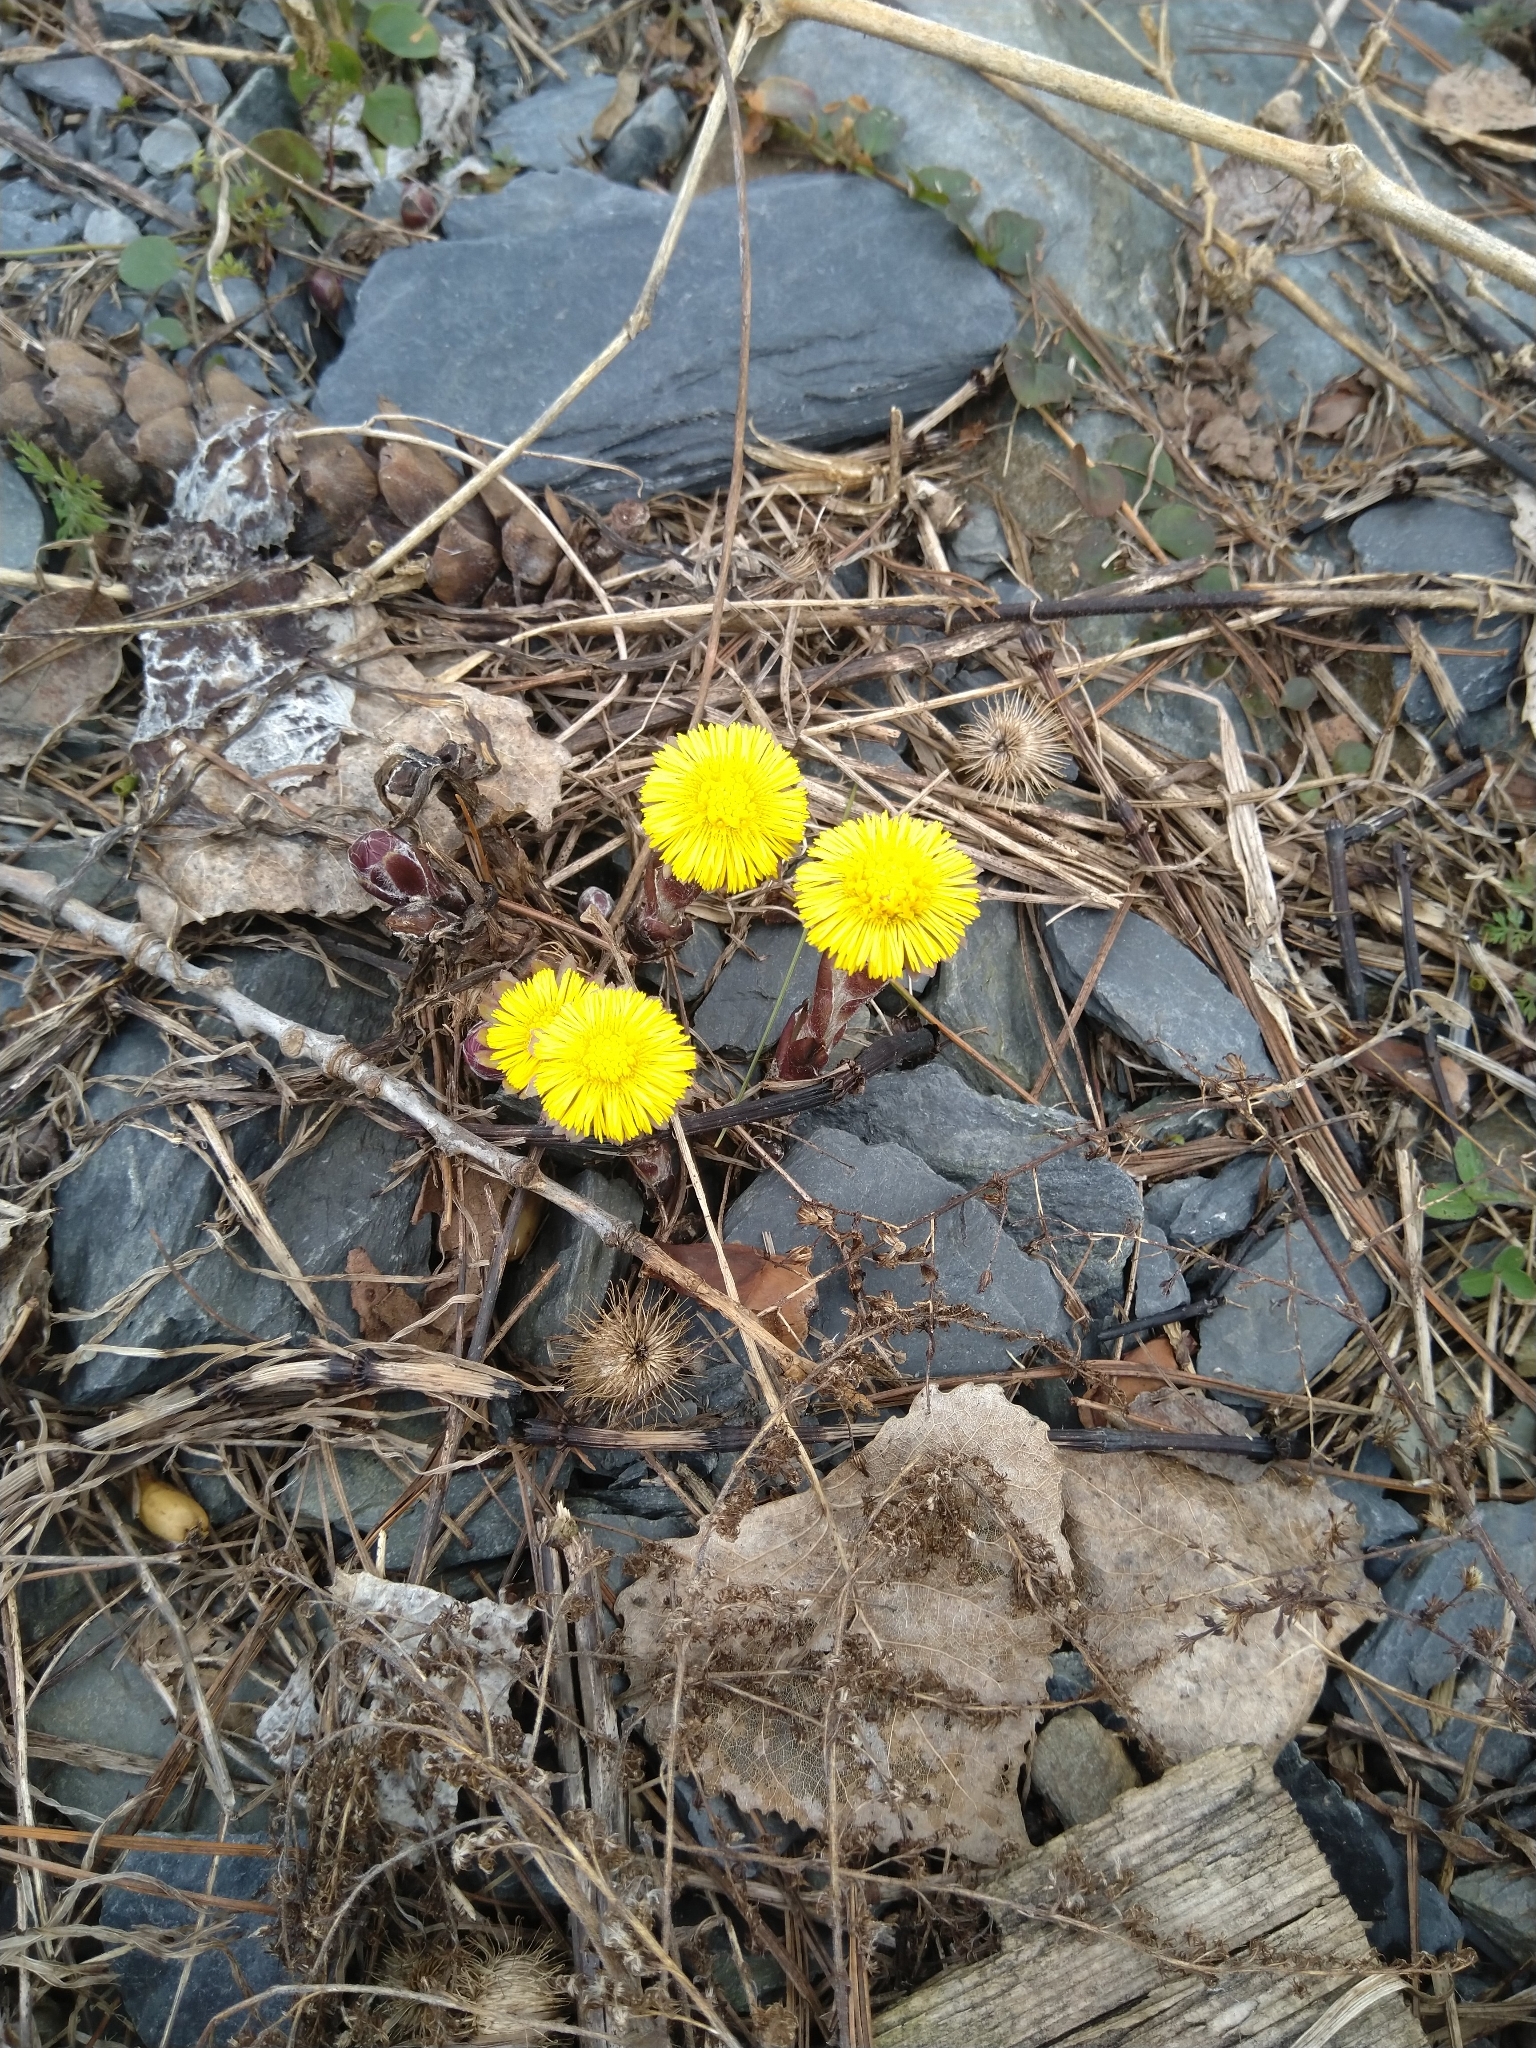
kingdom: Plantae
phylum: Tracheophyta
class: Magnoliopsida
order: Asterales
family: Asteraceae
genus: Tussilago
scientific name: Tussilago farfara
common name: Coltsfoot
